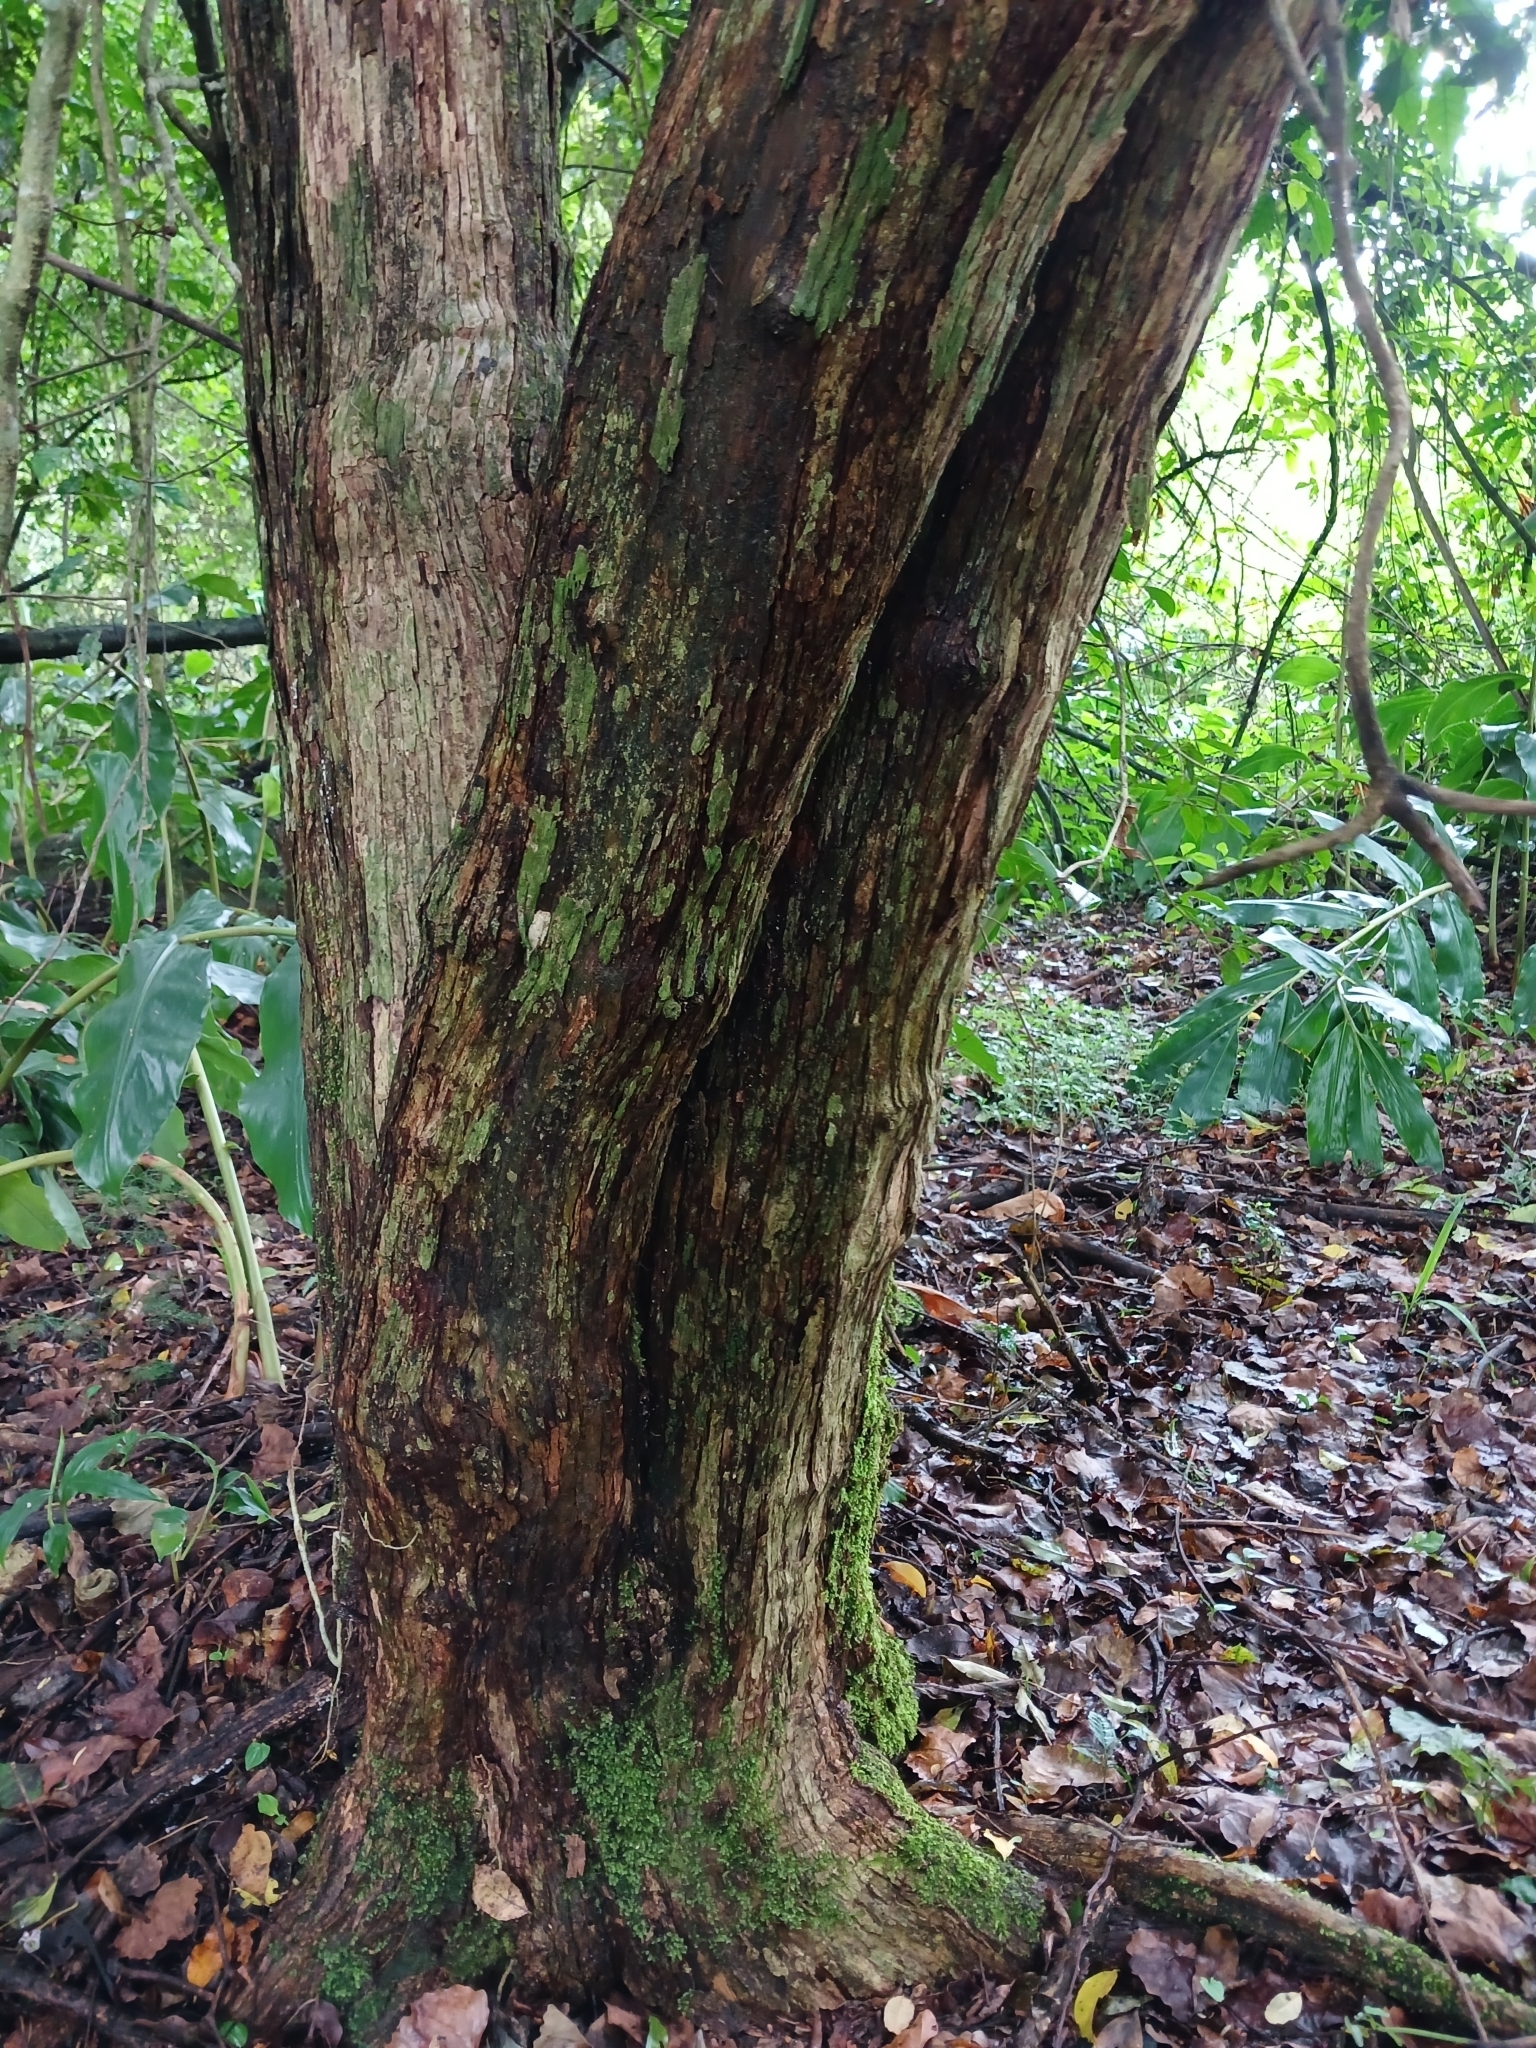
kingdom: Plantae
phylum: Tracheophyta
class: Magnoliopsida
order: Lamiales
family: Stilbaceae
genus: Halleria
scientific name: Halleria lucida
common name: Tree fuschia
